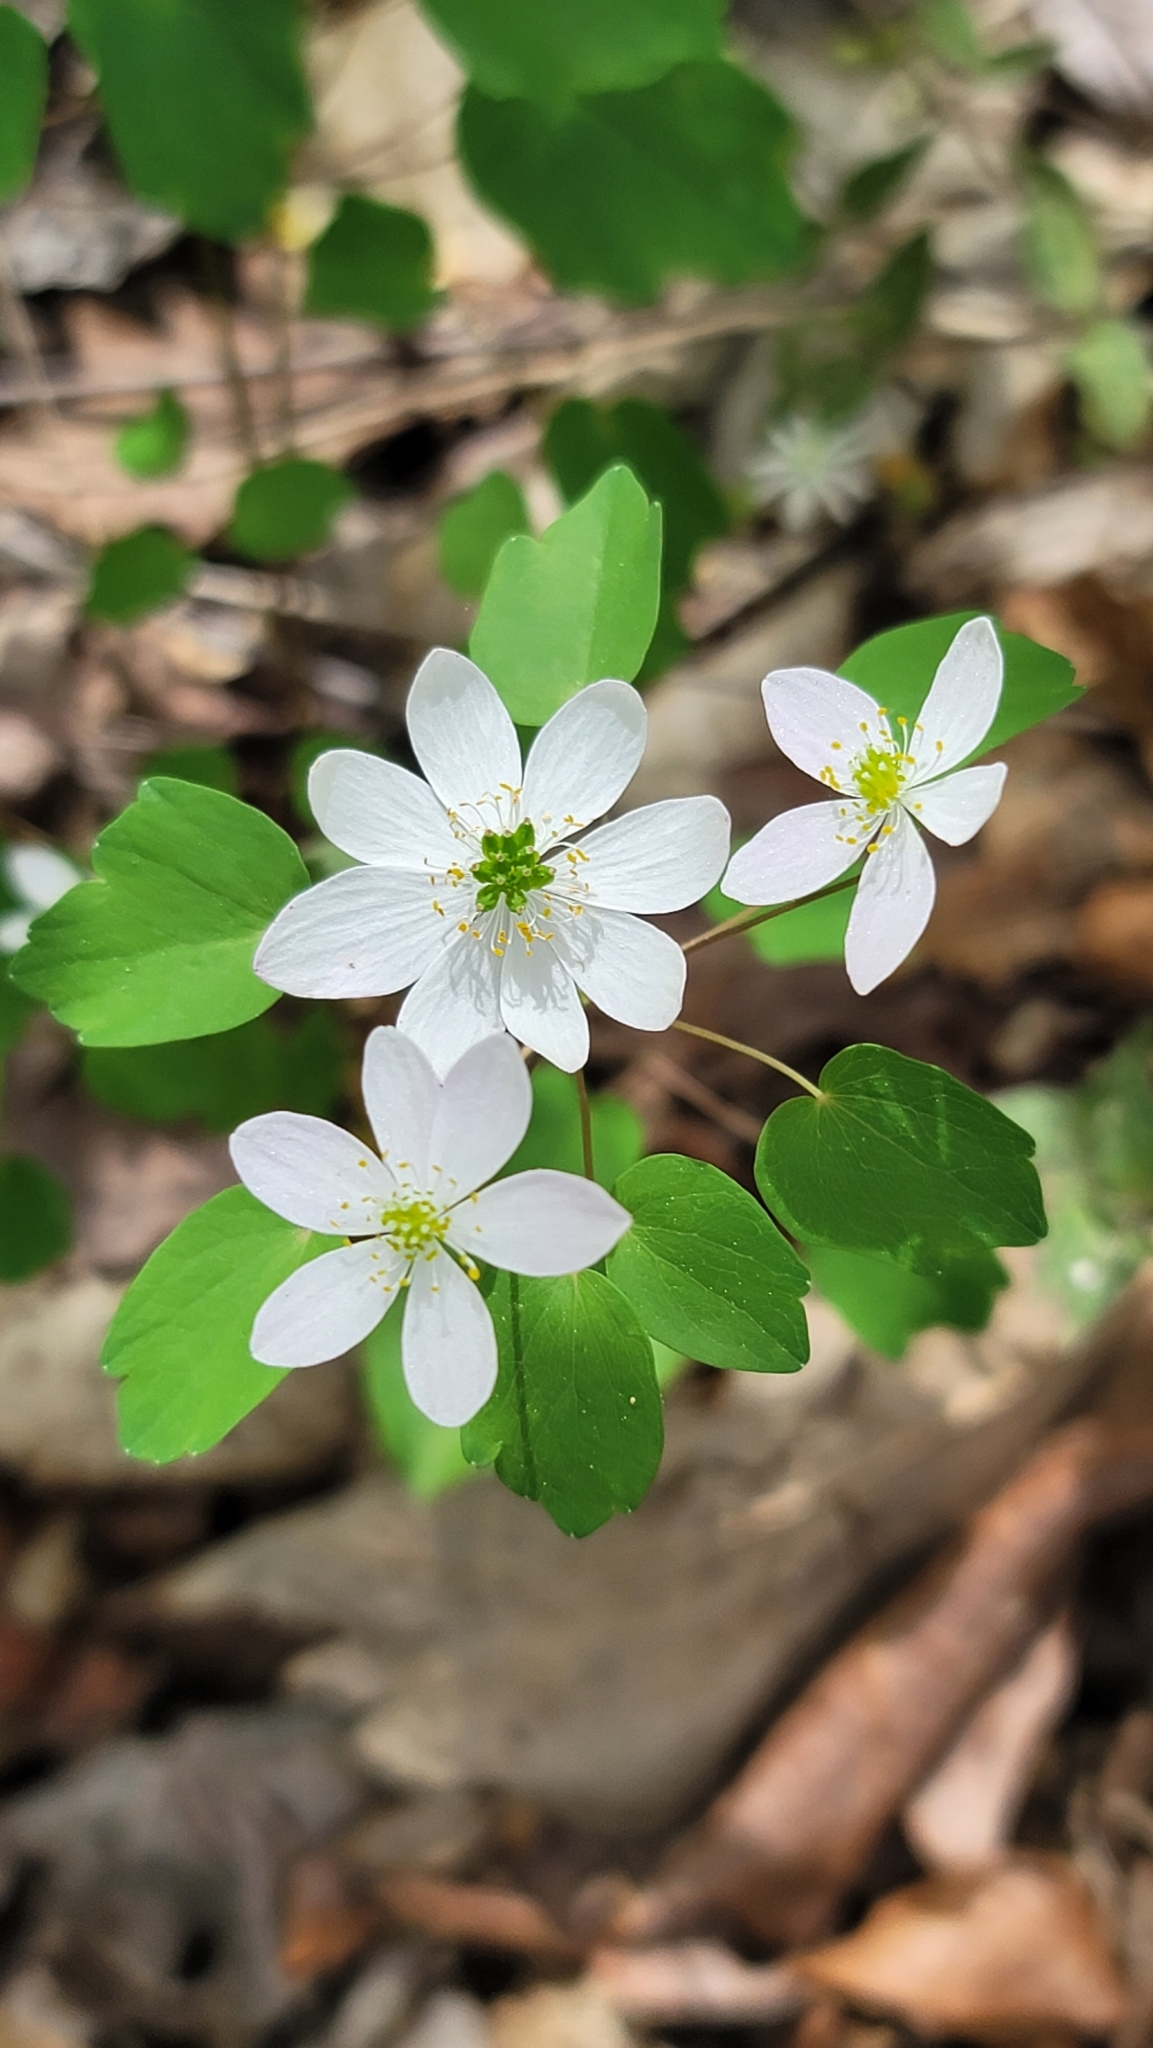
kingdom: Plantae
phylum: Tracheophyta
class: Magnoliopsida
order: Ranunculales
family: Ranunculaceae
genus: Thalictrum
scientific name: Thalictrum thalictroides
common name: Rue-anemone
